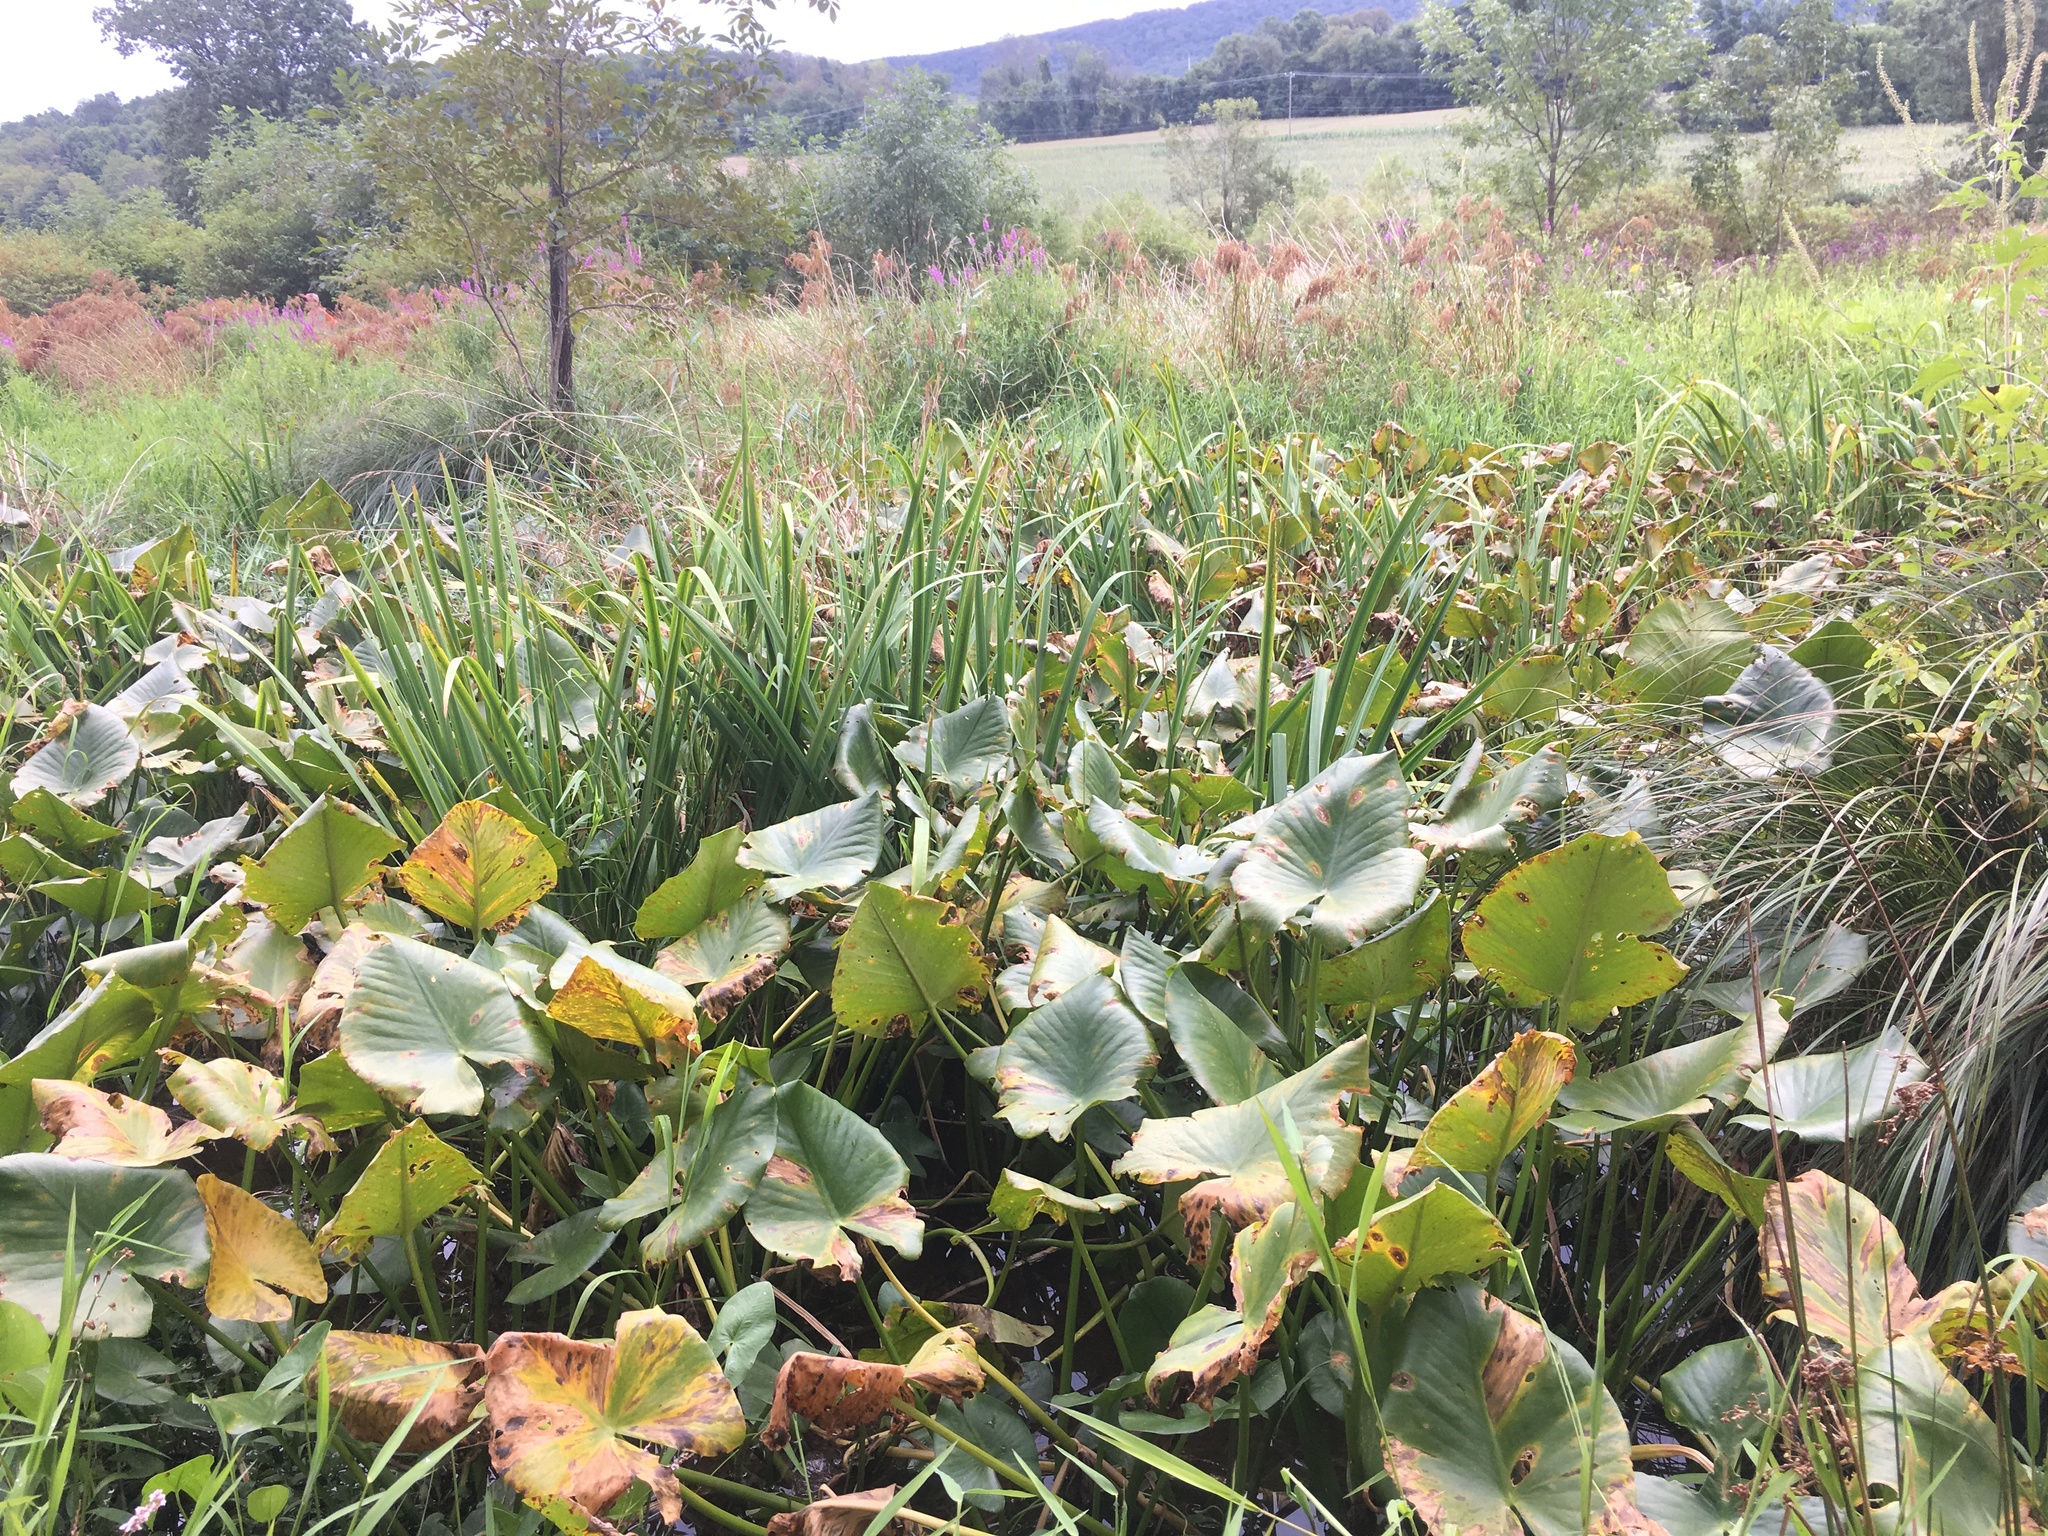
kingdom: Plantae
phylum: Tracheophyta
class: Magnoliopsida
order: Nymphaeales
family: Nymphaeaceae
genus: Nuphar
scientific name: Nuphar advena
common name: Spatter-dock
